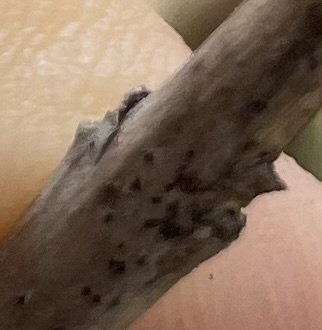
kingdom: Plantae
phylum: Tracheophyta
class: Magnoliopsida
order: Lamiales
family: Oleaceae
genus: Ligustrum
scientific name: Ligustrum lucidum
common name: Glossy privet
